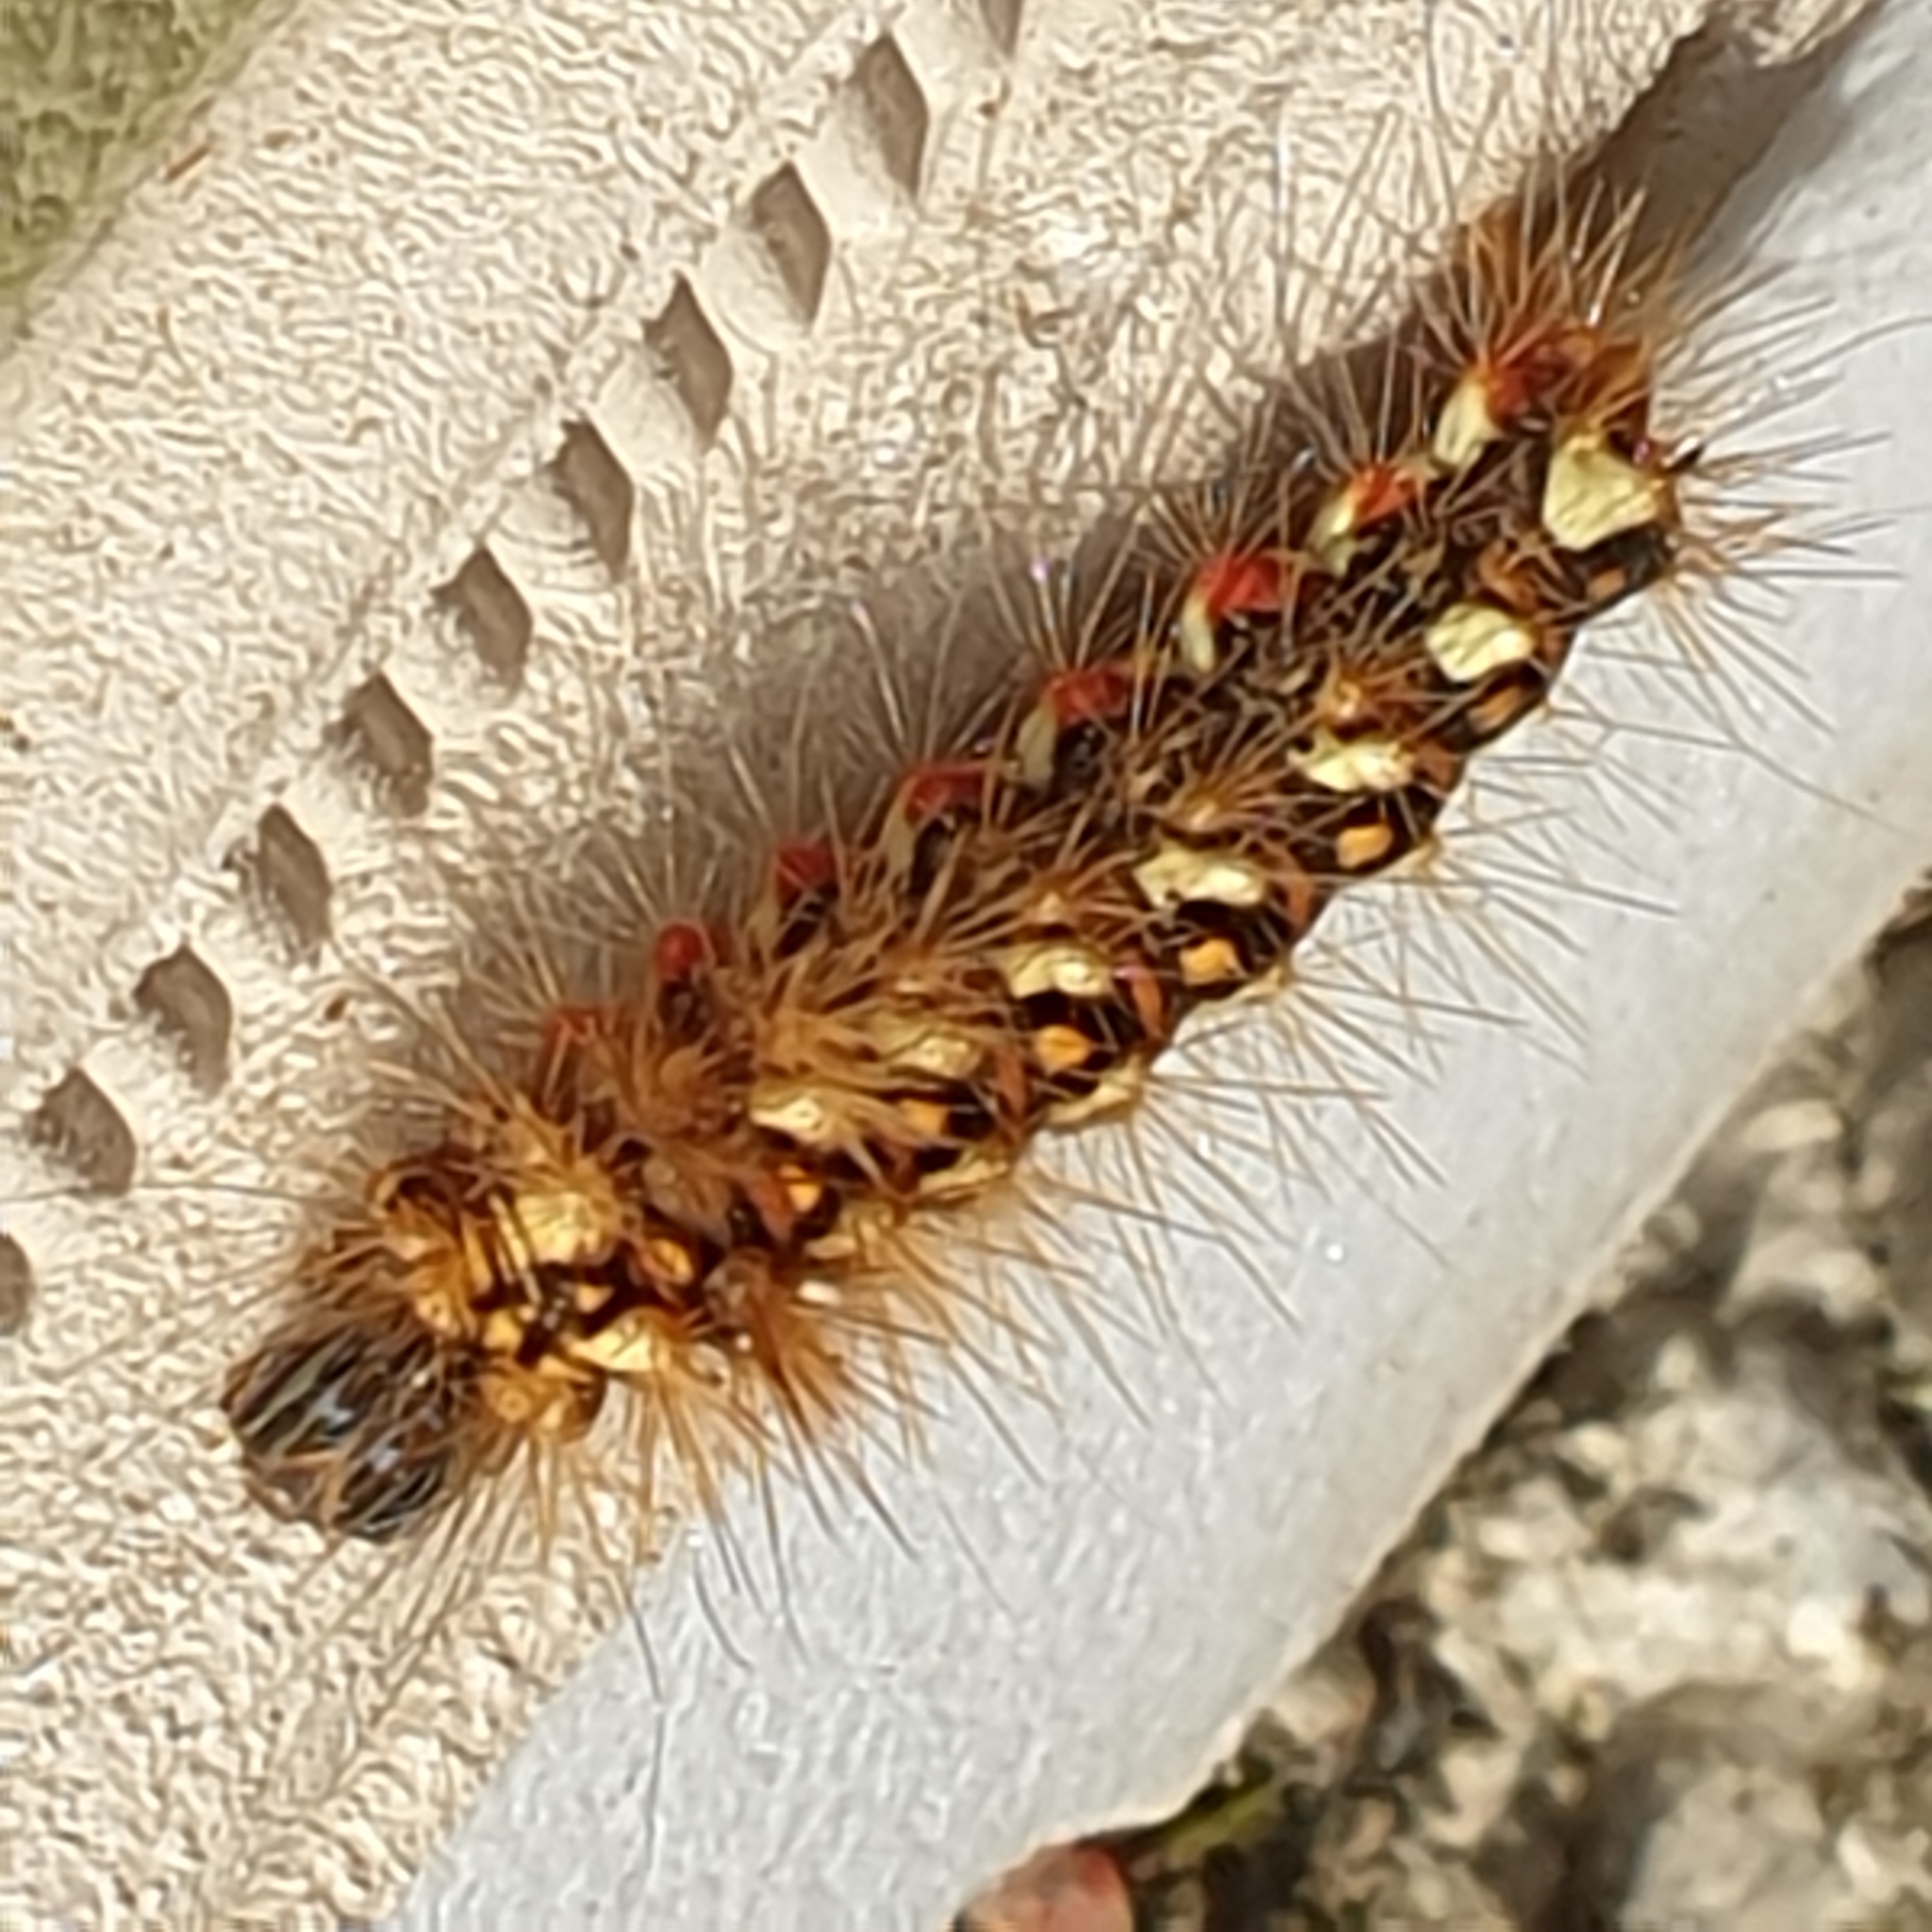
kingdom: Animalia
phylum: Arthropoda
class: Insecta
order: Lepidoptera
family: Noctuidae
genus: Acronicta
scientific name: Acronicta rumicis
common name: Knot grass
